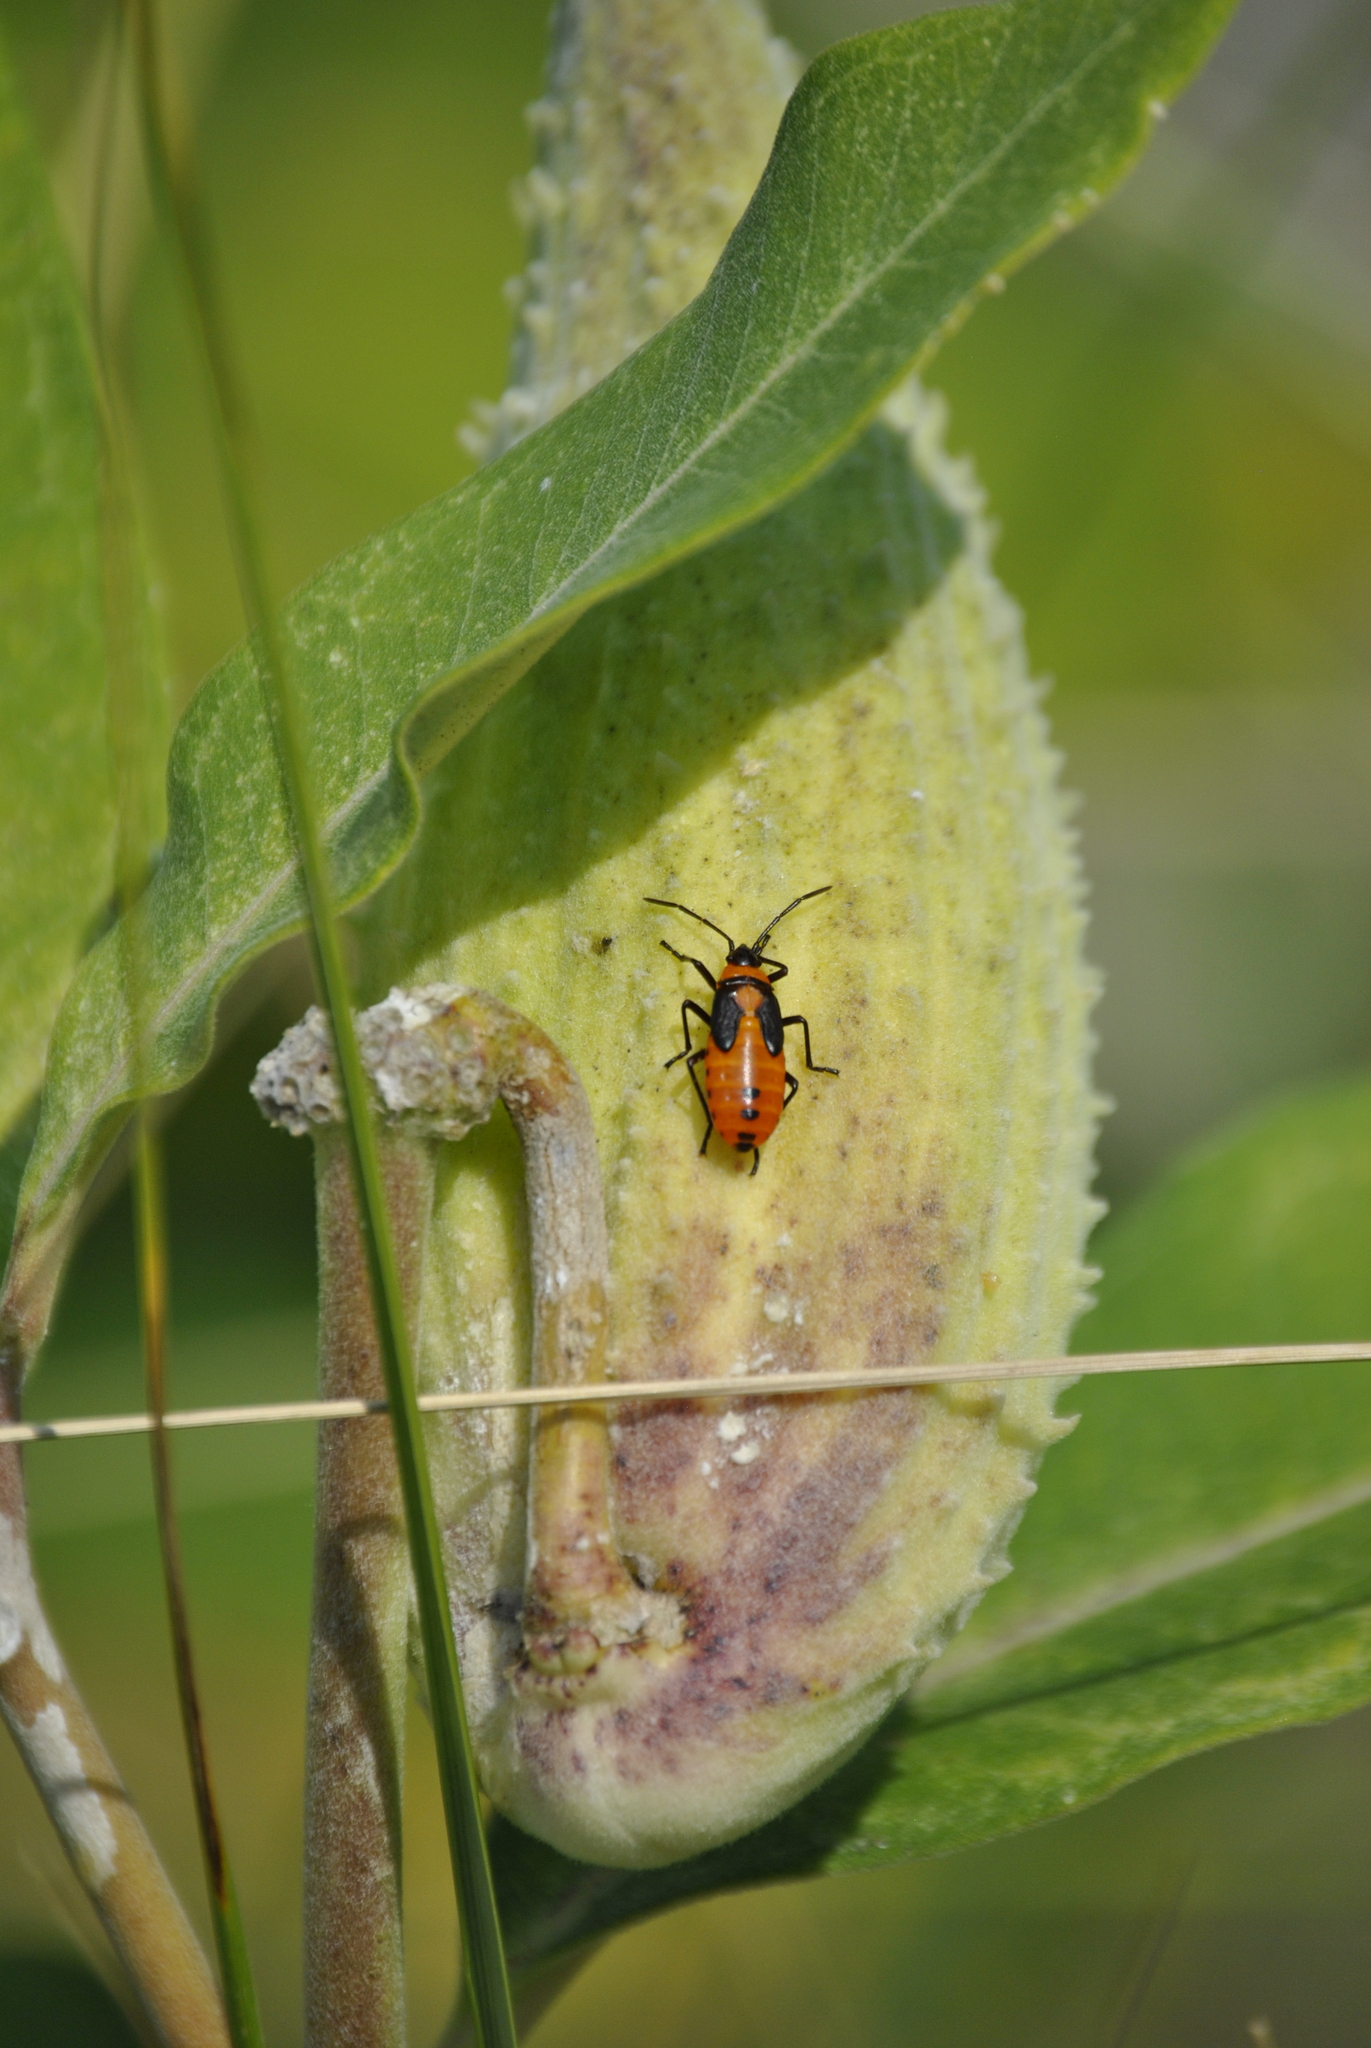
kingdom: Animalia
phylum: Arthropoda
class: Insecta
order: Hemiptera
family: Lygaeidae
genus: Oncopeltus
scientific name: Oncopeltus fasciatus
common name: Large milkweed bug
